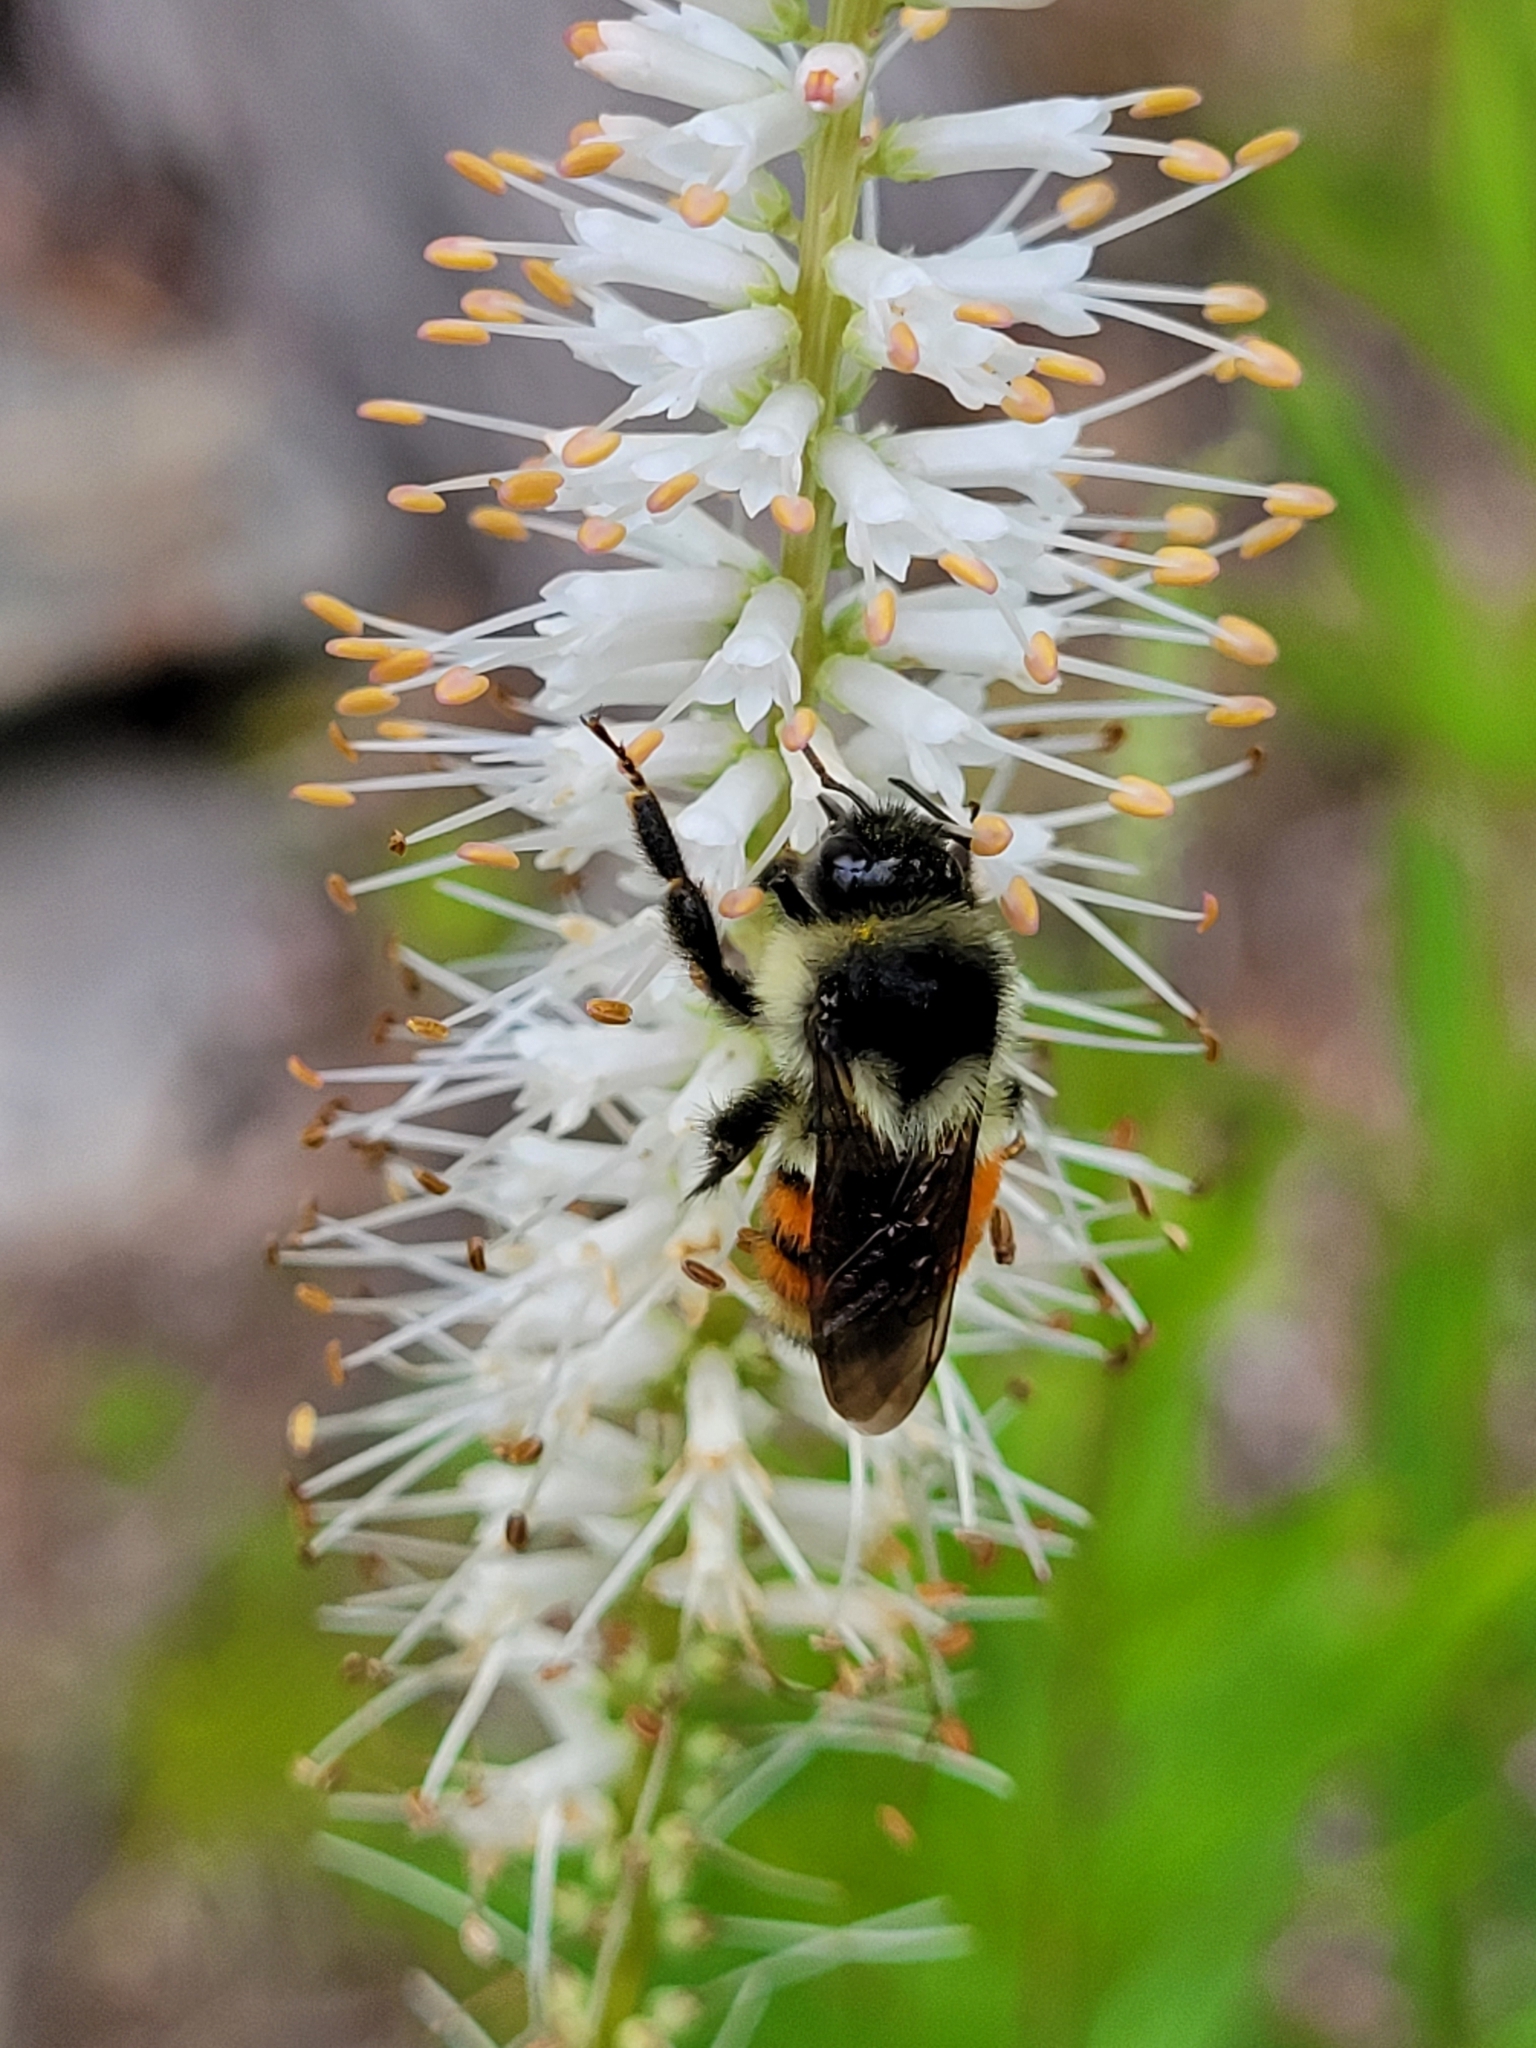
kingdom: Animalia
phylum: Arthropoda
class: Insecta
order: Hymenoptera
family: Apidae
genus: Bombus
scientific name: Bombus ternarius
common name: Tri-colored bumble bee
